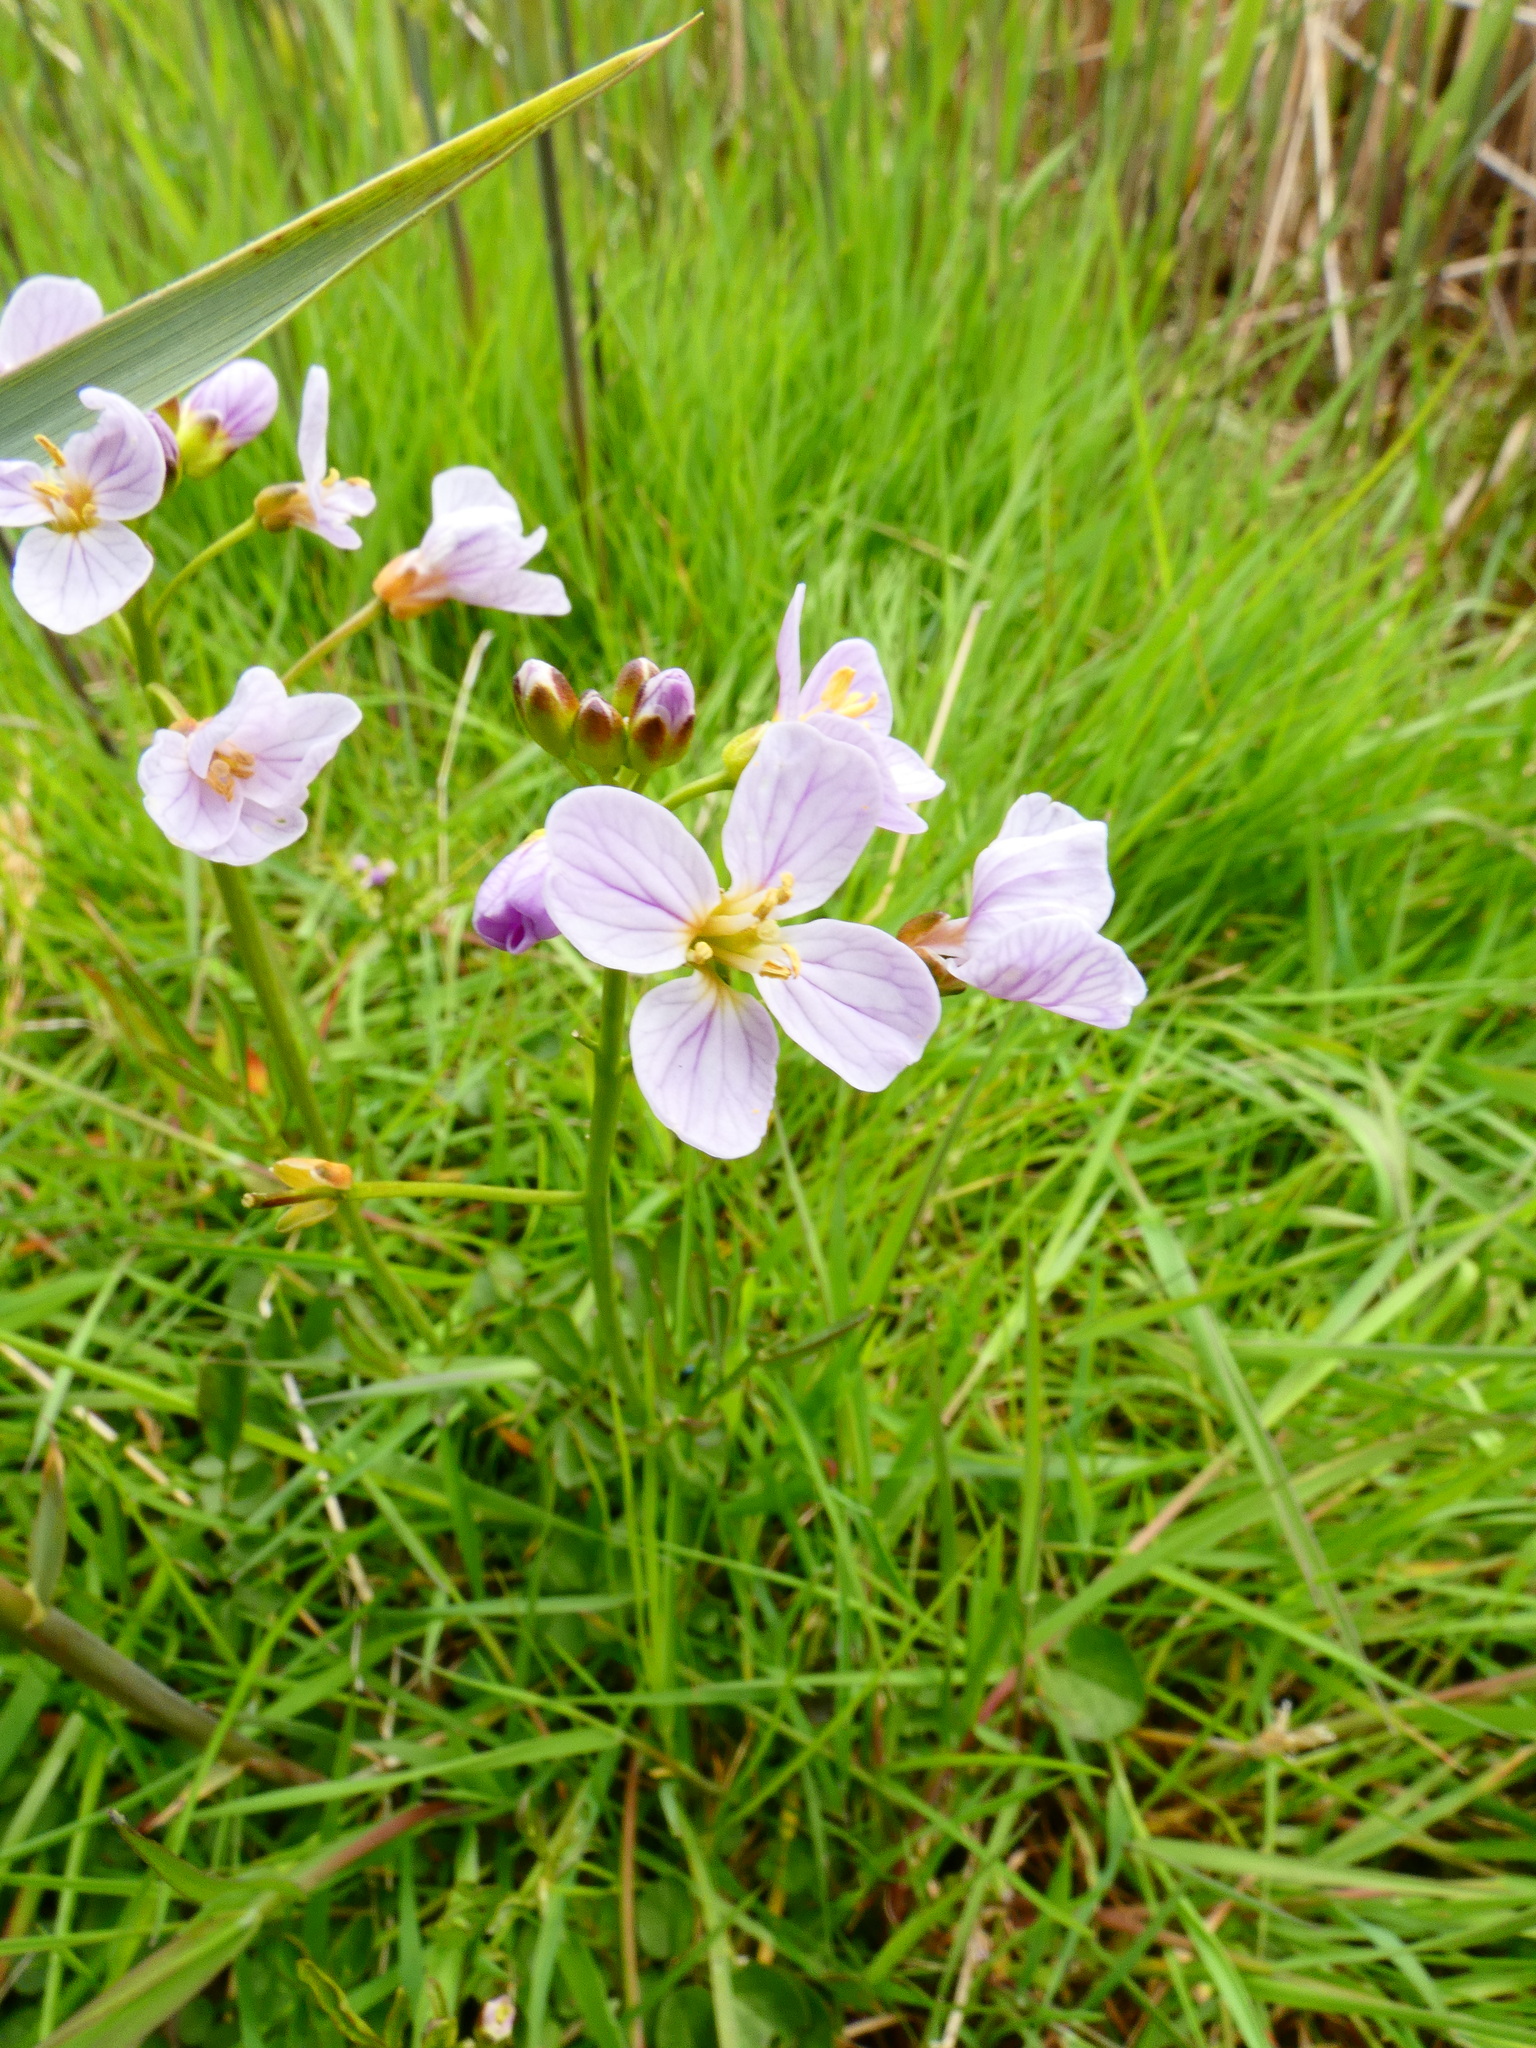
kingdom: Plantae
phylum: Tracheophyta
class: Magnoliopsida
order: Brassicales
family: Brassicaceae
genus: Cardamine
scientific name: Cardamine pratensis
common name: Cuckoo flower
